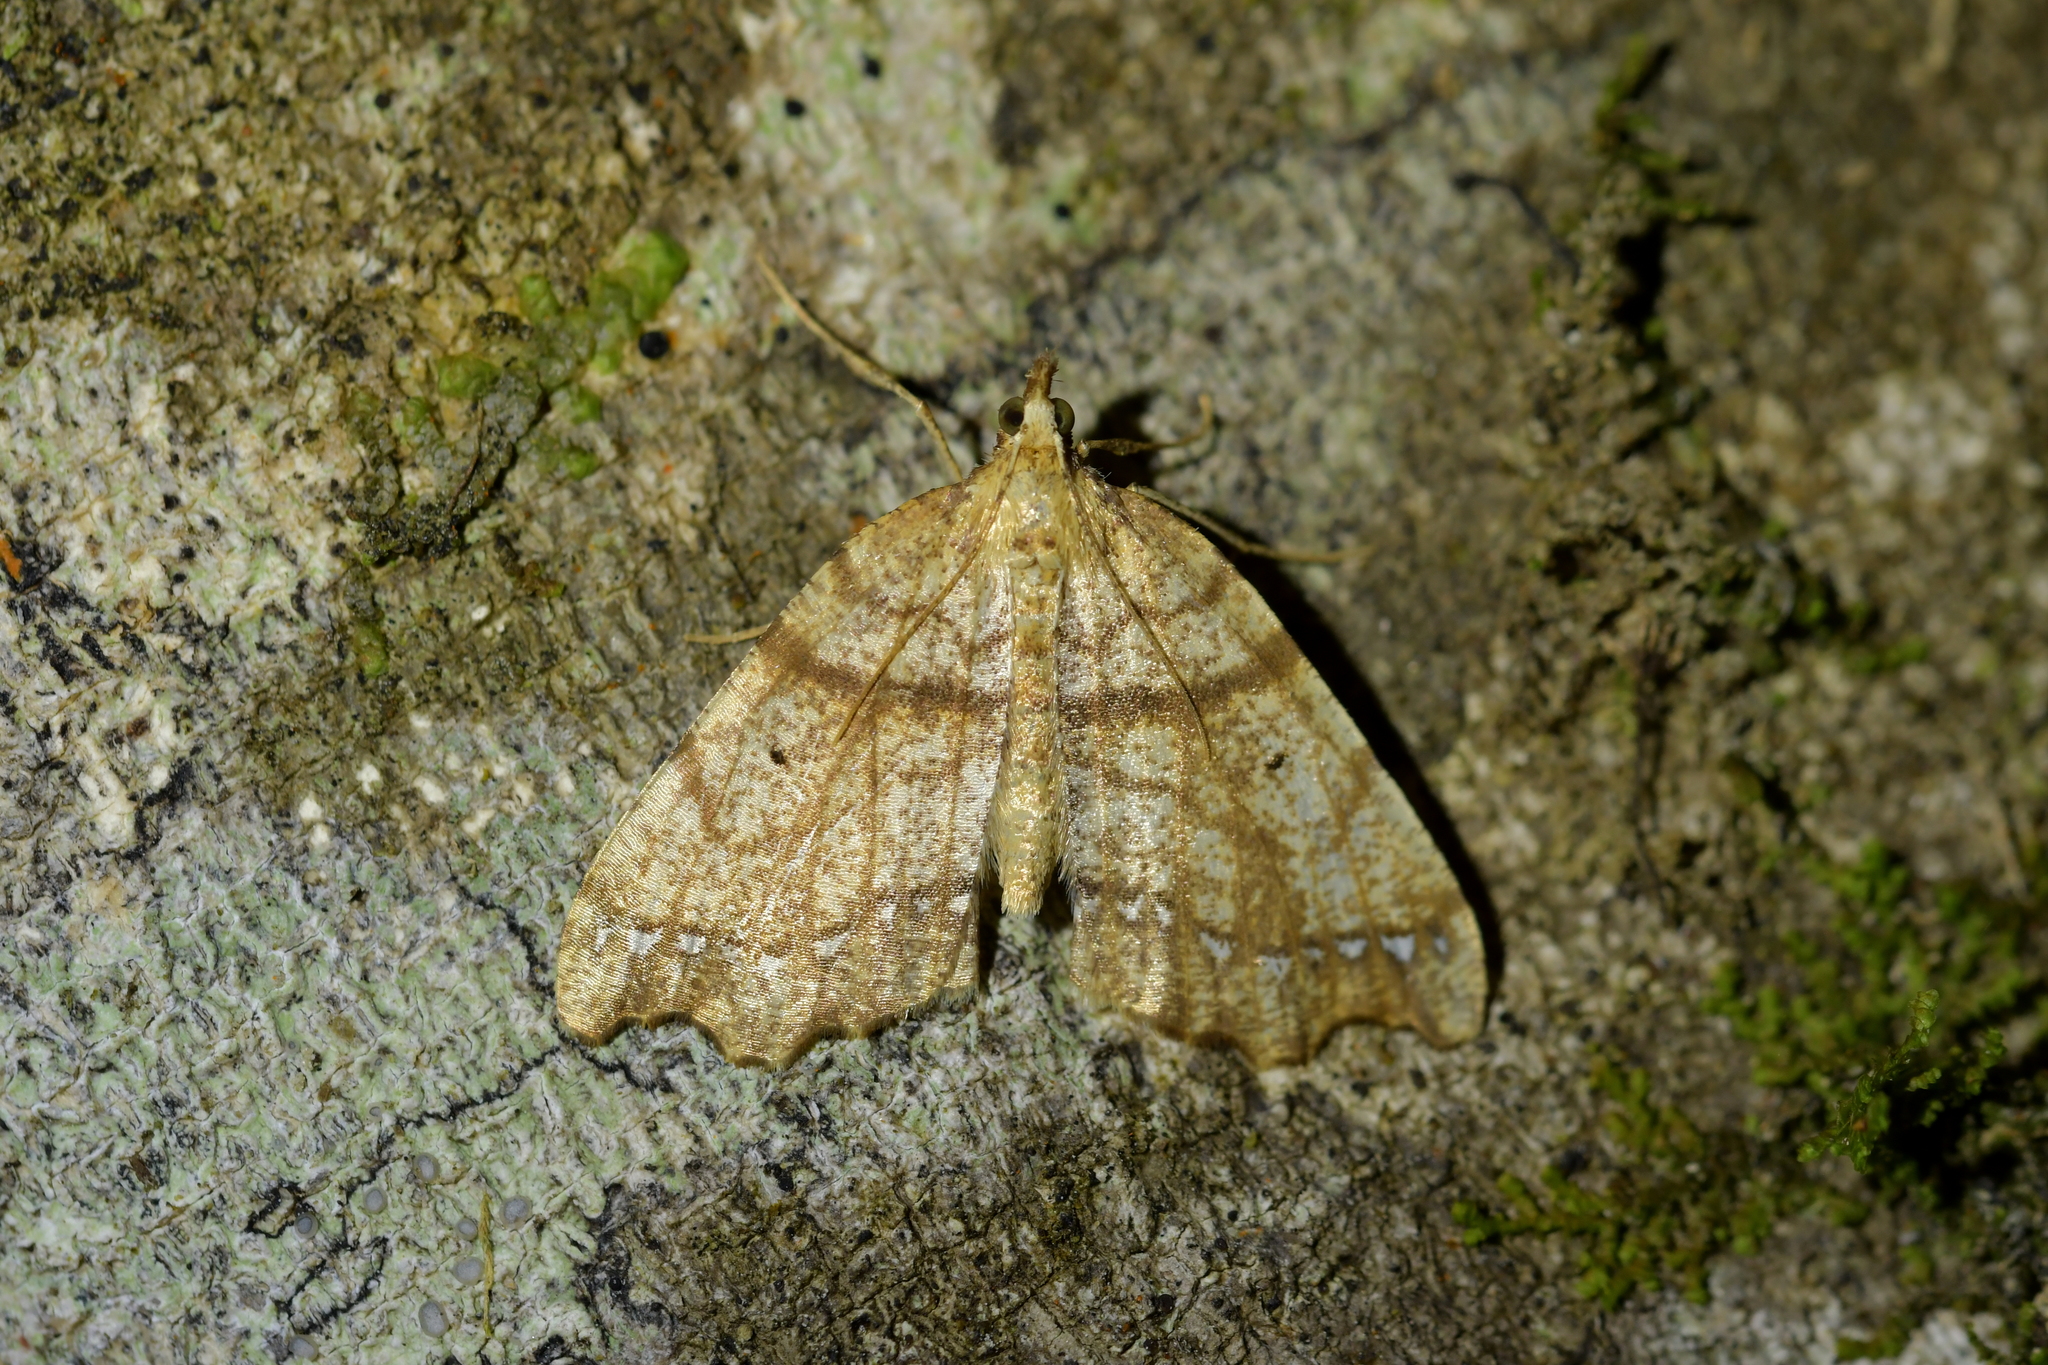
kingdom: Animalia
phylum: Arthropoda
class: Insecta
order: Lepidoptera
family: Geometridae
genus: Chalastra
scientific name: Chalastra pellurgata
